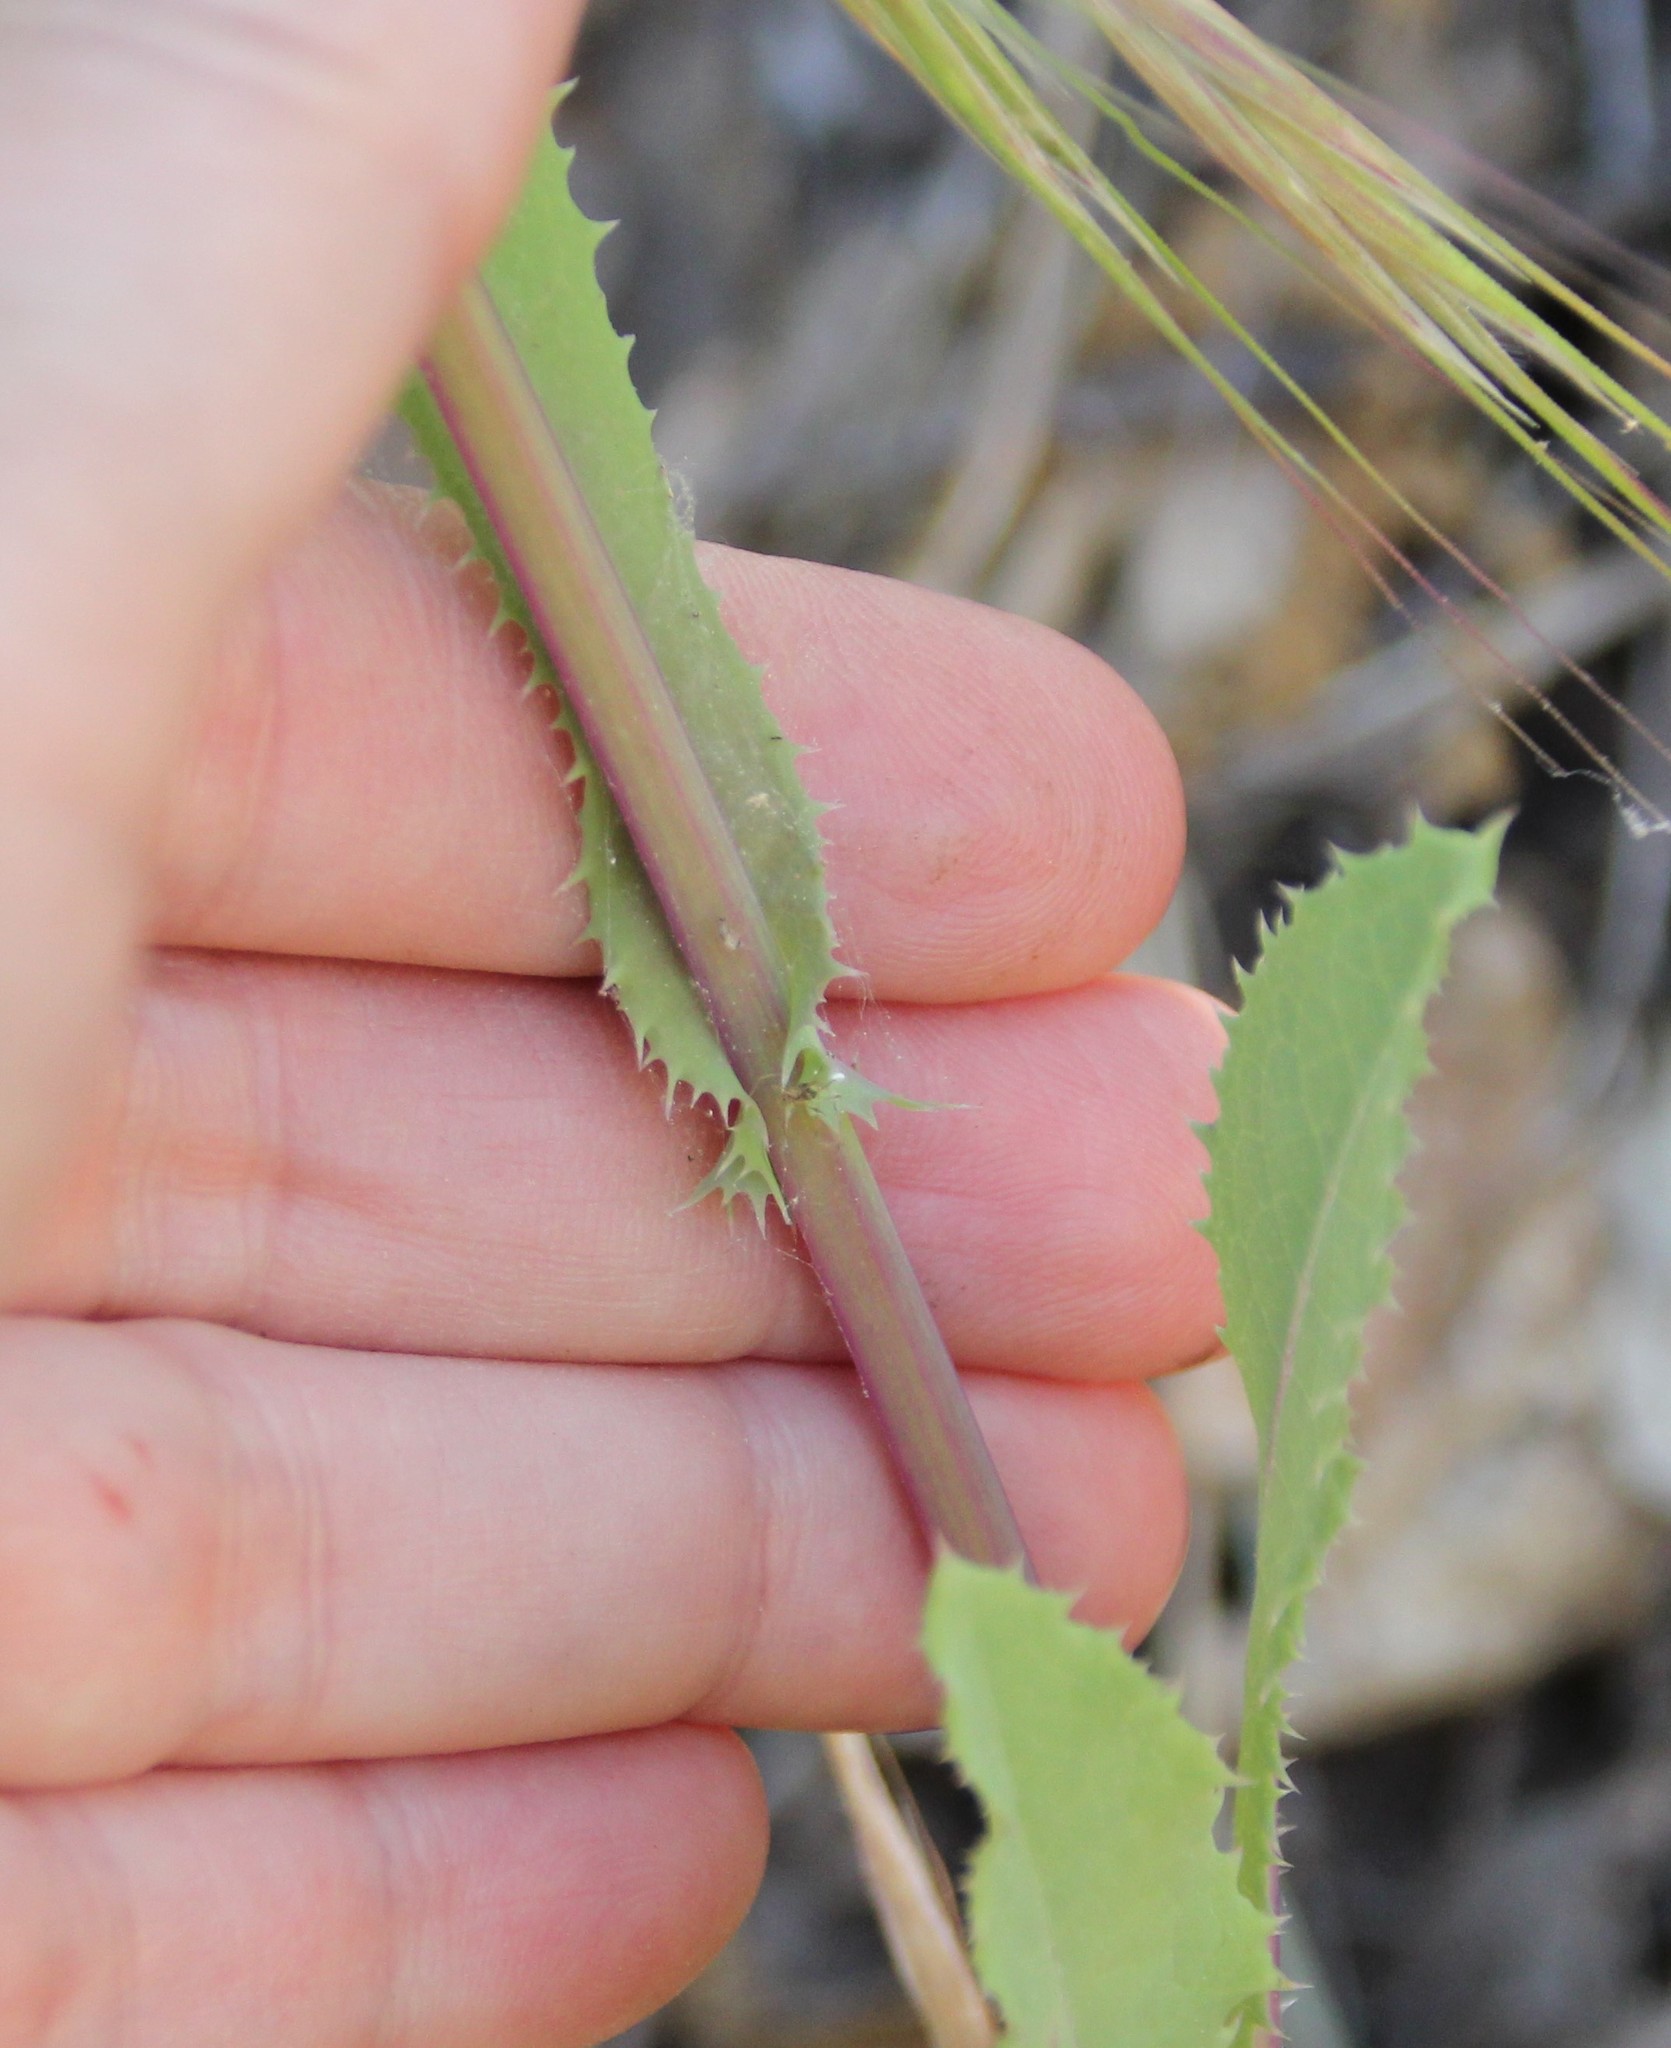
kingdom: Plantae
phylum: Tracheophyta
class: Magnoliopsida
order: Asterales
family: Asteraceae
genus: Sonchus
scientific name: Sonchus asper
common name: Prickly sow-thistle
